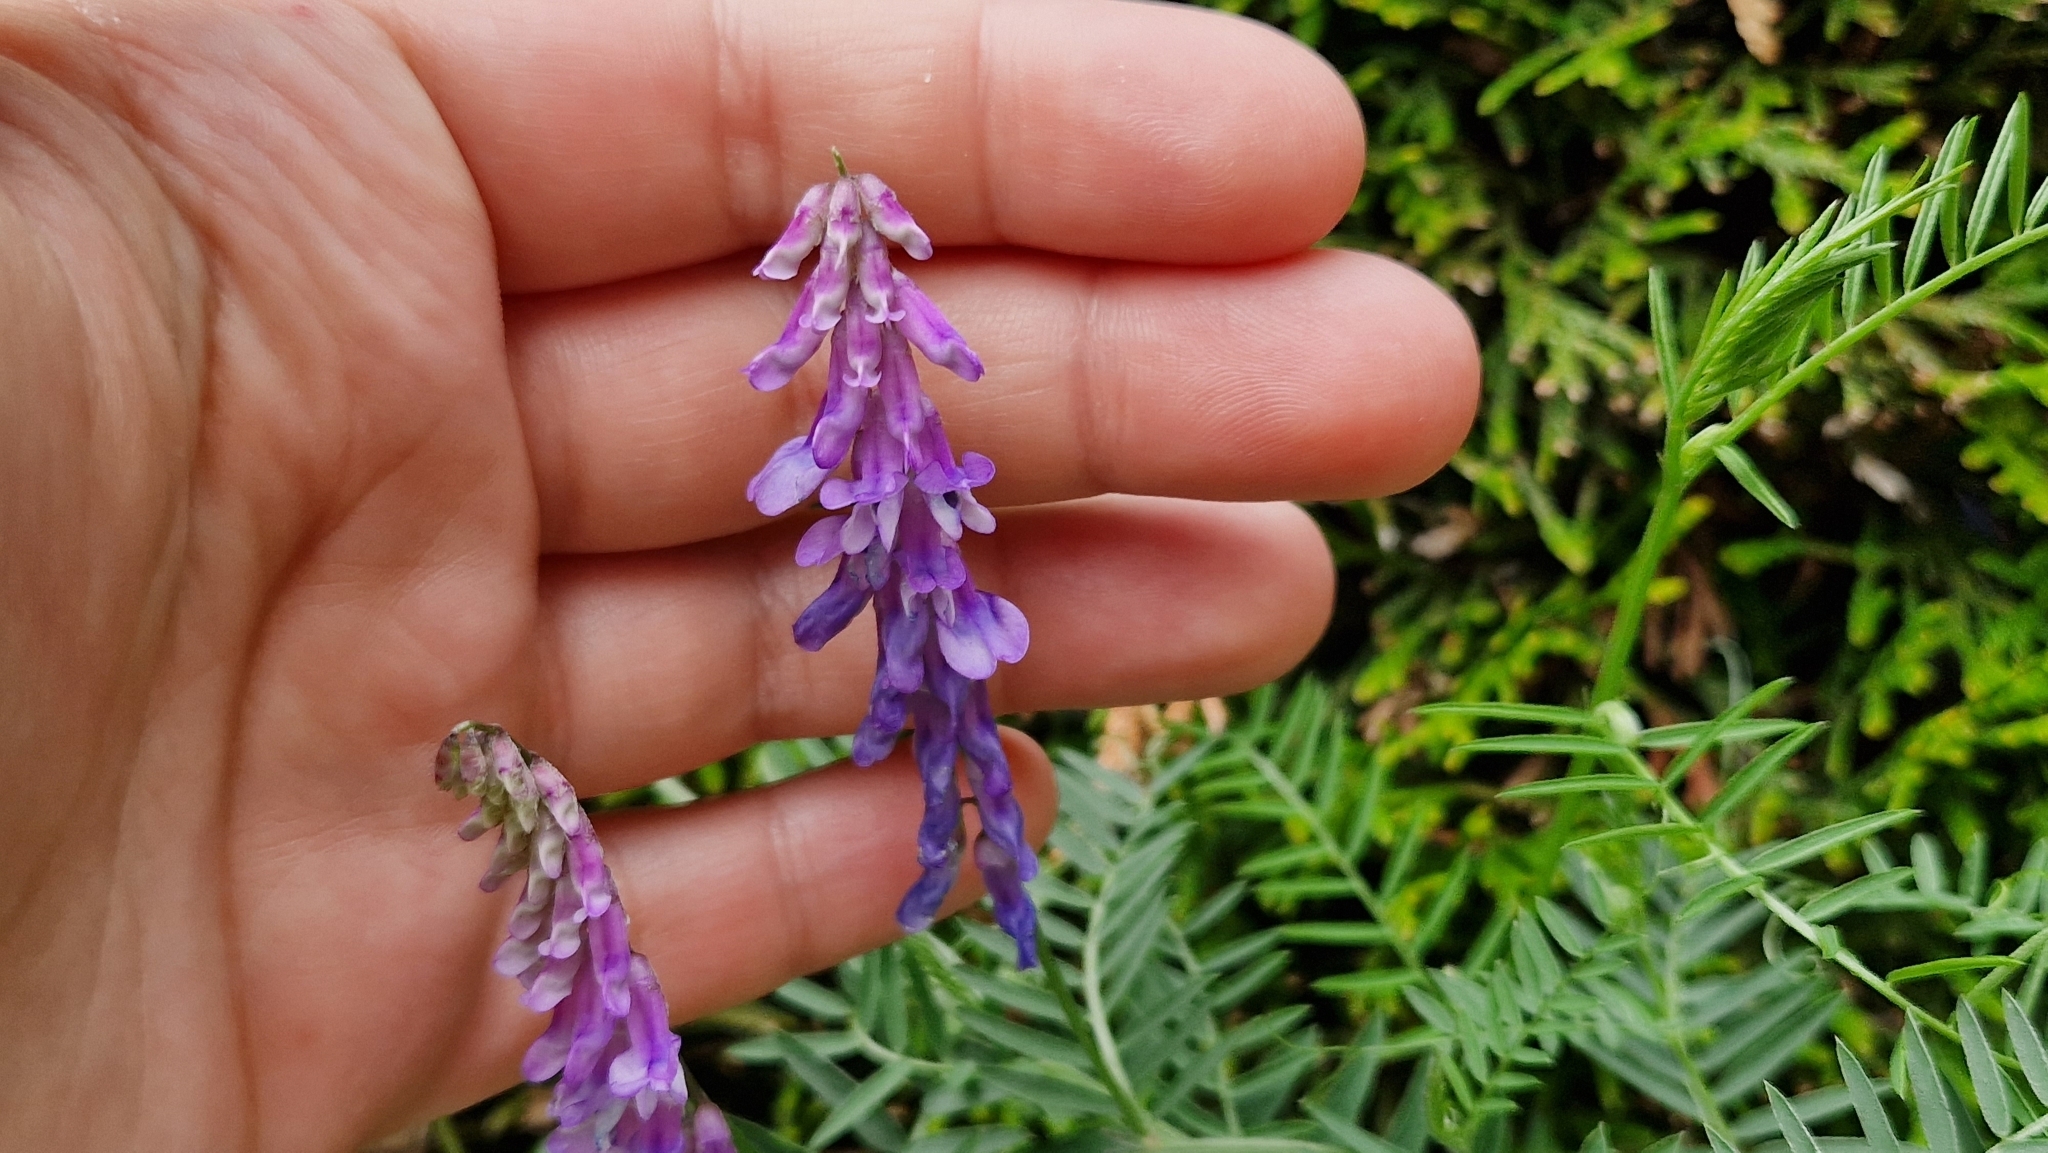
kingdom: Plantae
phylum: Tracheophyta
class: Magnoliopsida
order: Fabales
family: Fabaceae
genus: Vicia
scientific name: Vicia cracca
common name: Bird vetch
